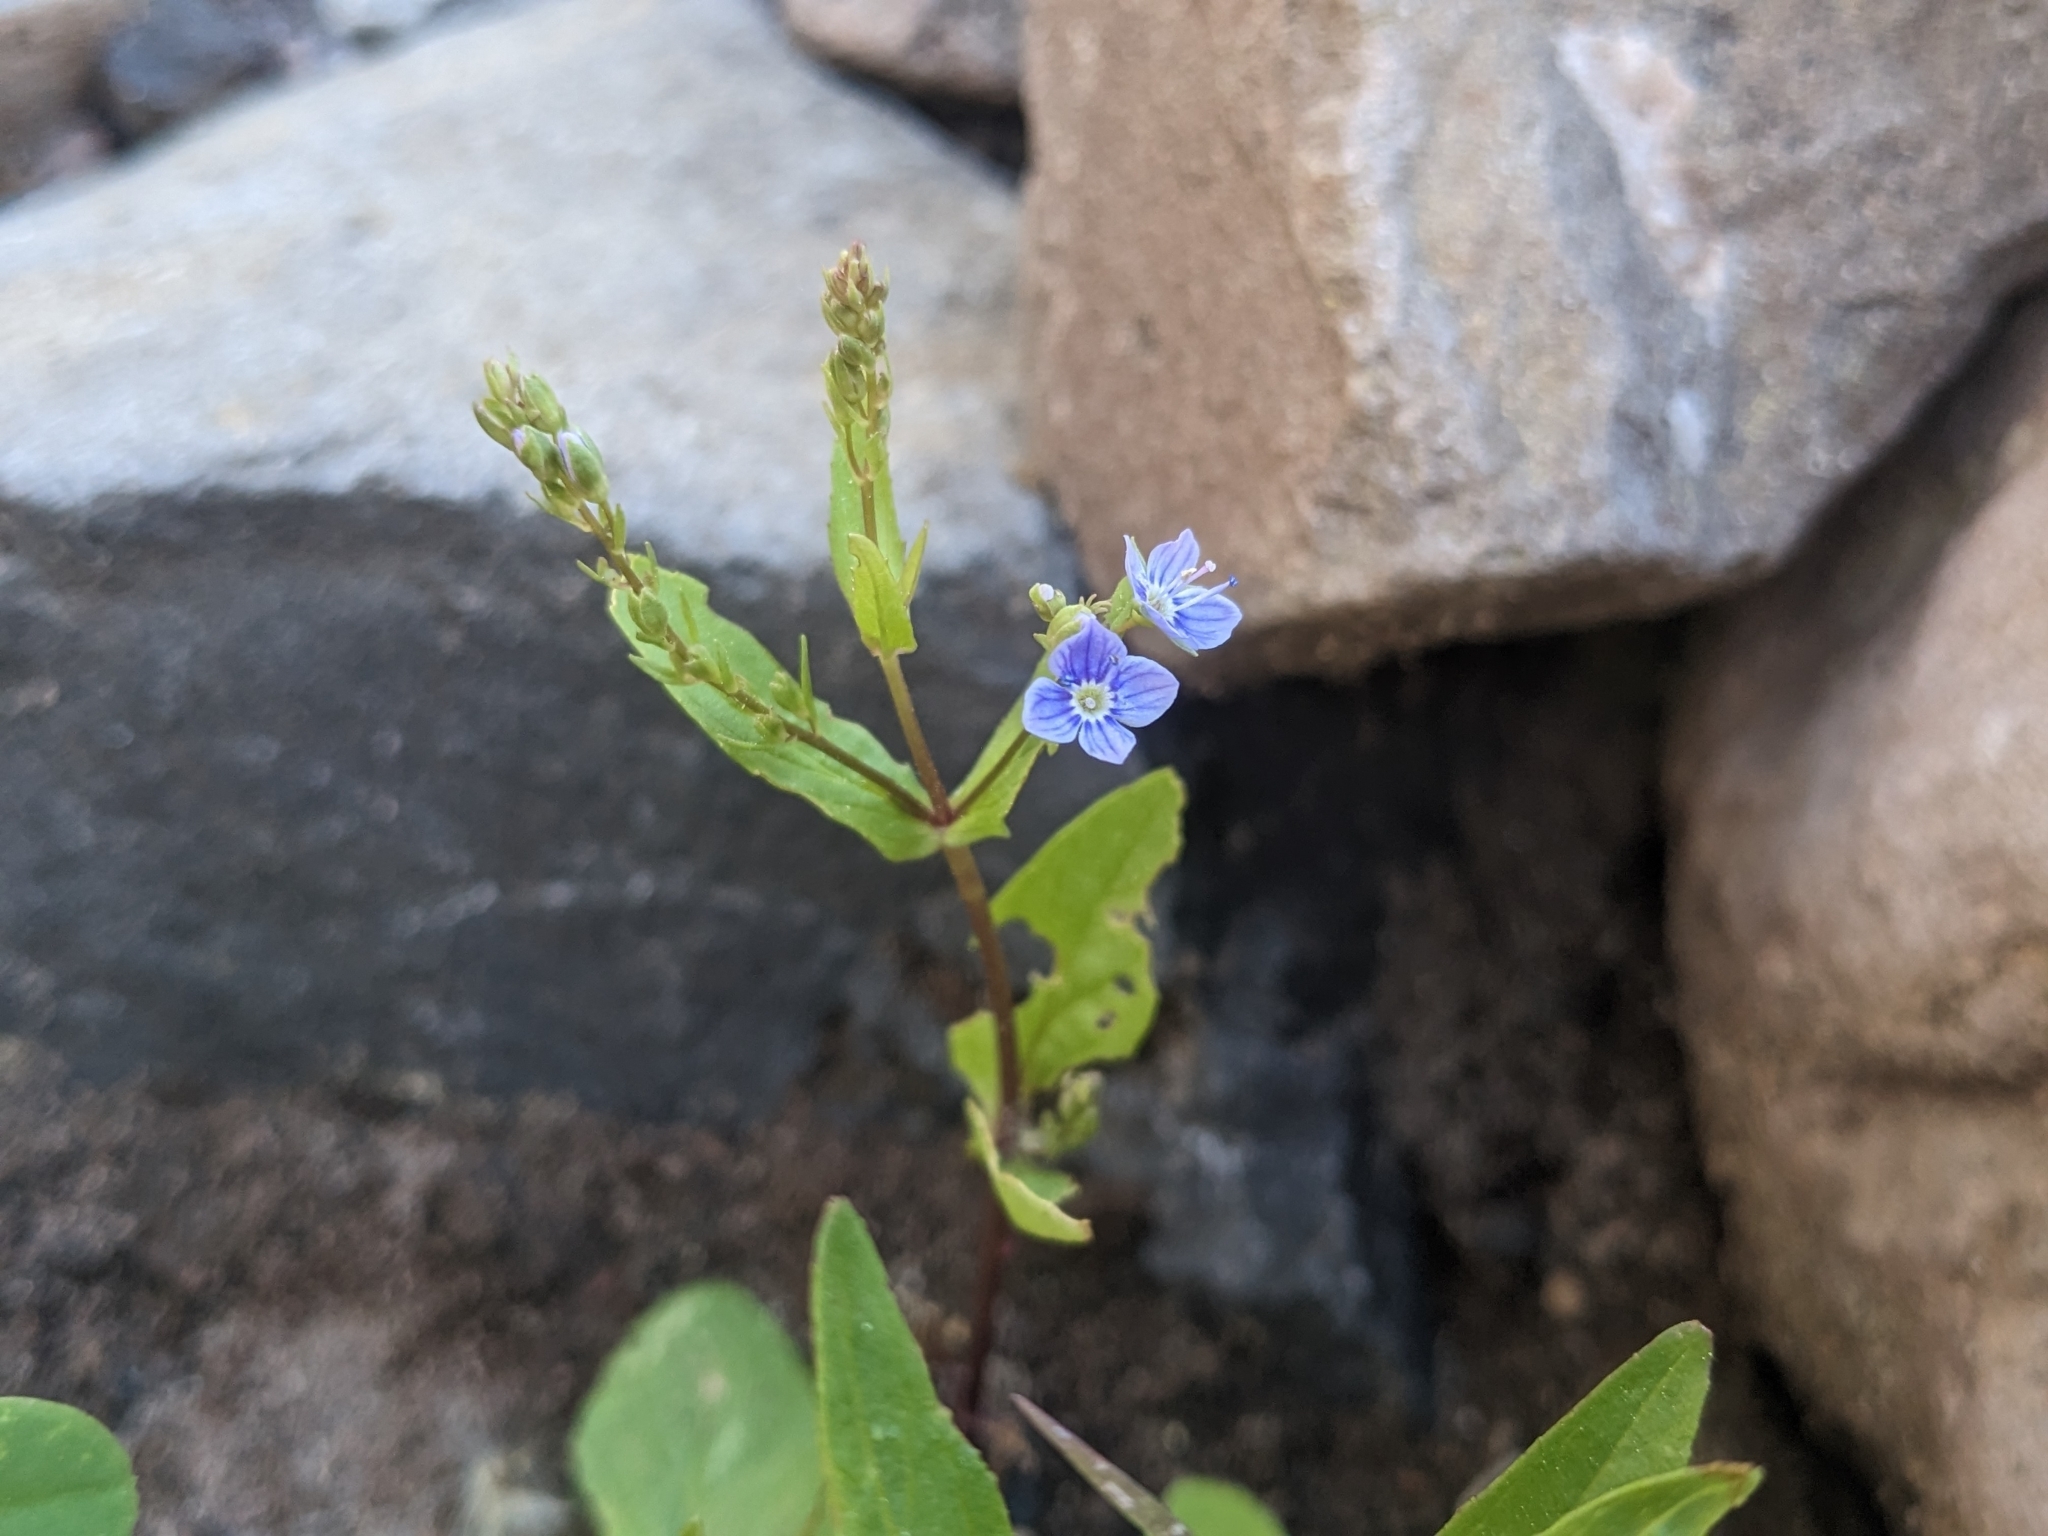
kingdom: Plantae
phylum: Tracheophyta
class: Magnoliopsida
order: Lamiales
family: Plantaginaceae
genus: Veronica
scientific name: Veronica anagallis-aquatica
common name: Water speedwell
